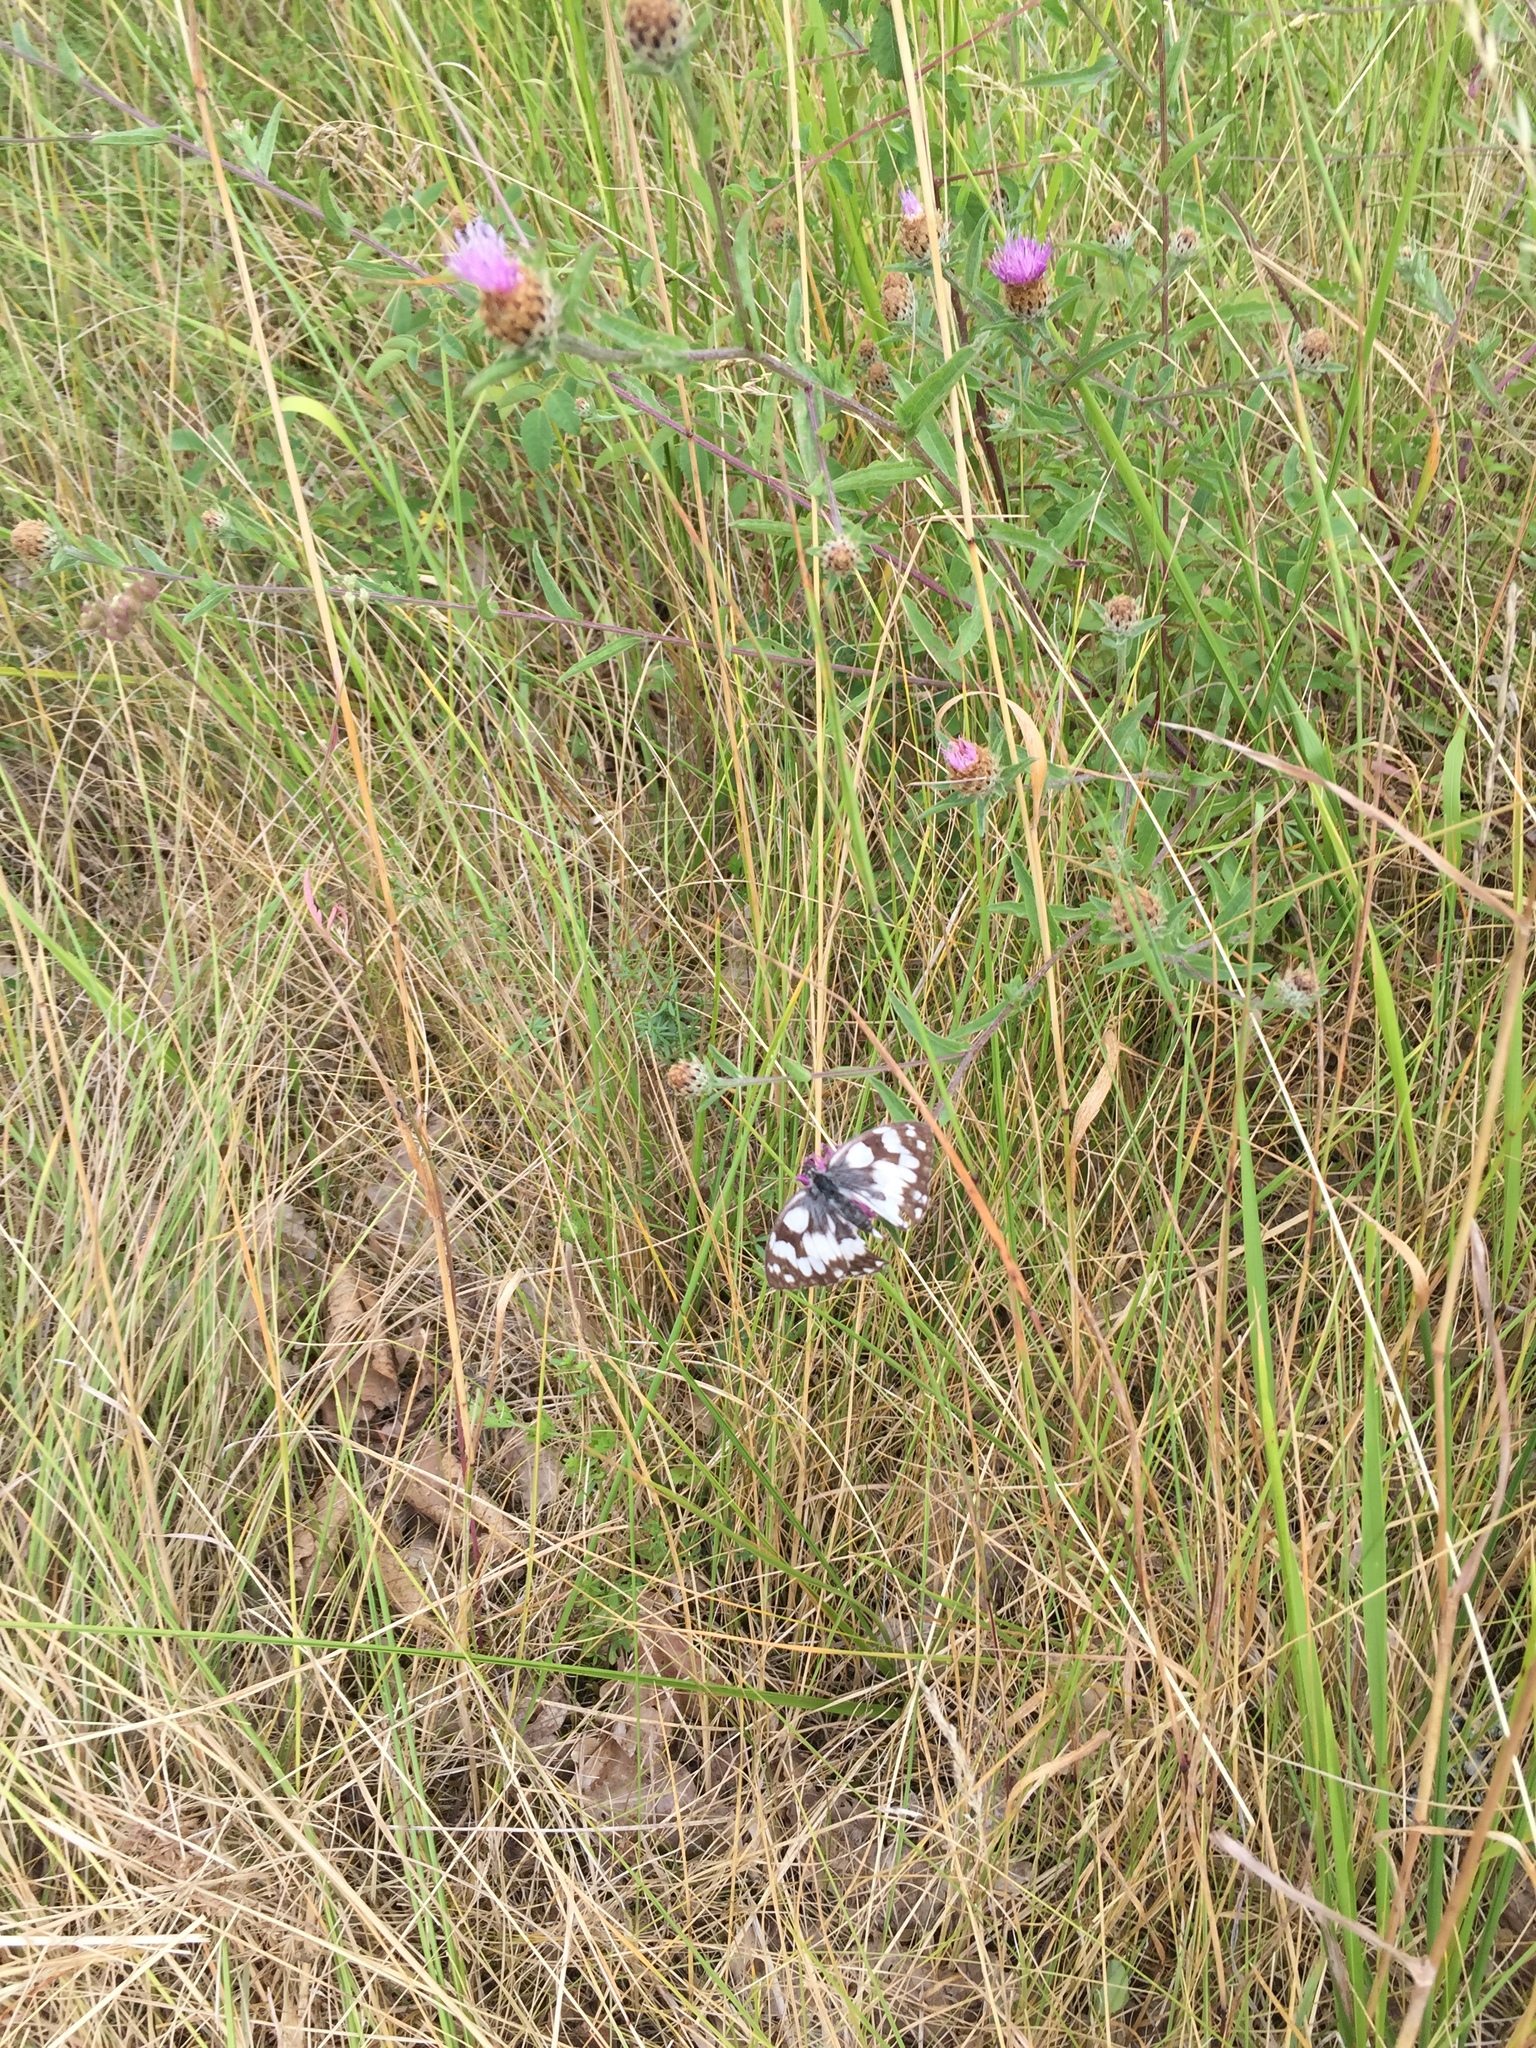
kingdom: Animalia
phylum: Arthropoda
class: Insecta
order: Lepidoptera
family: Nymphalidae
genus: Melanargia
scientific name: Melanargia galathea
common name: Marbled white
